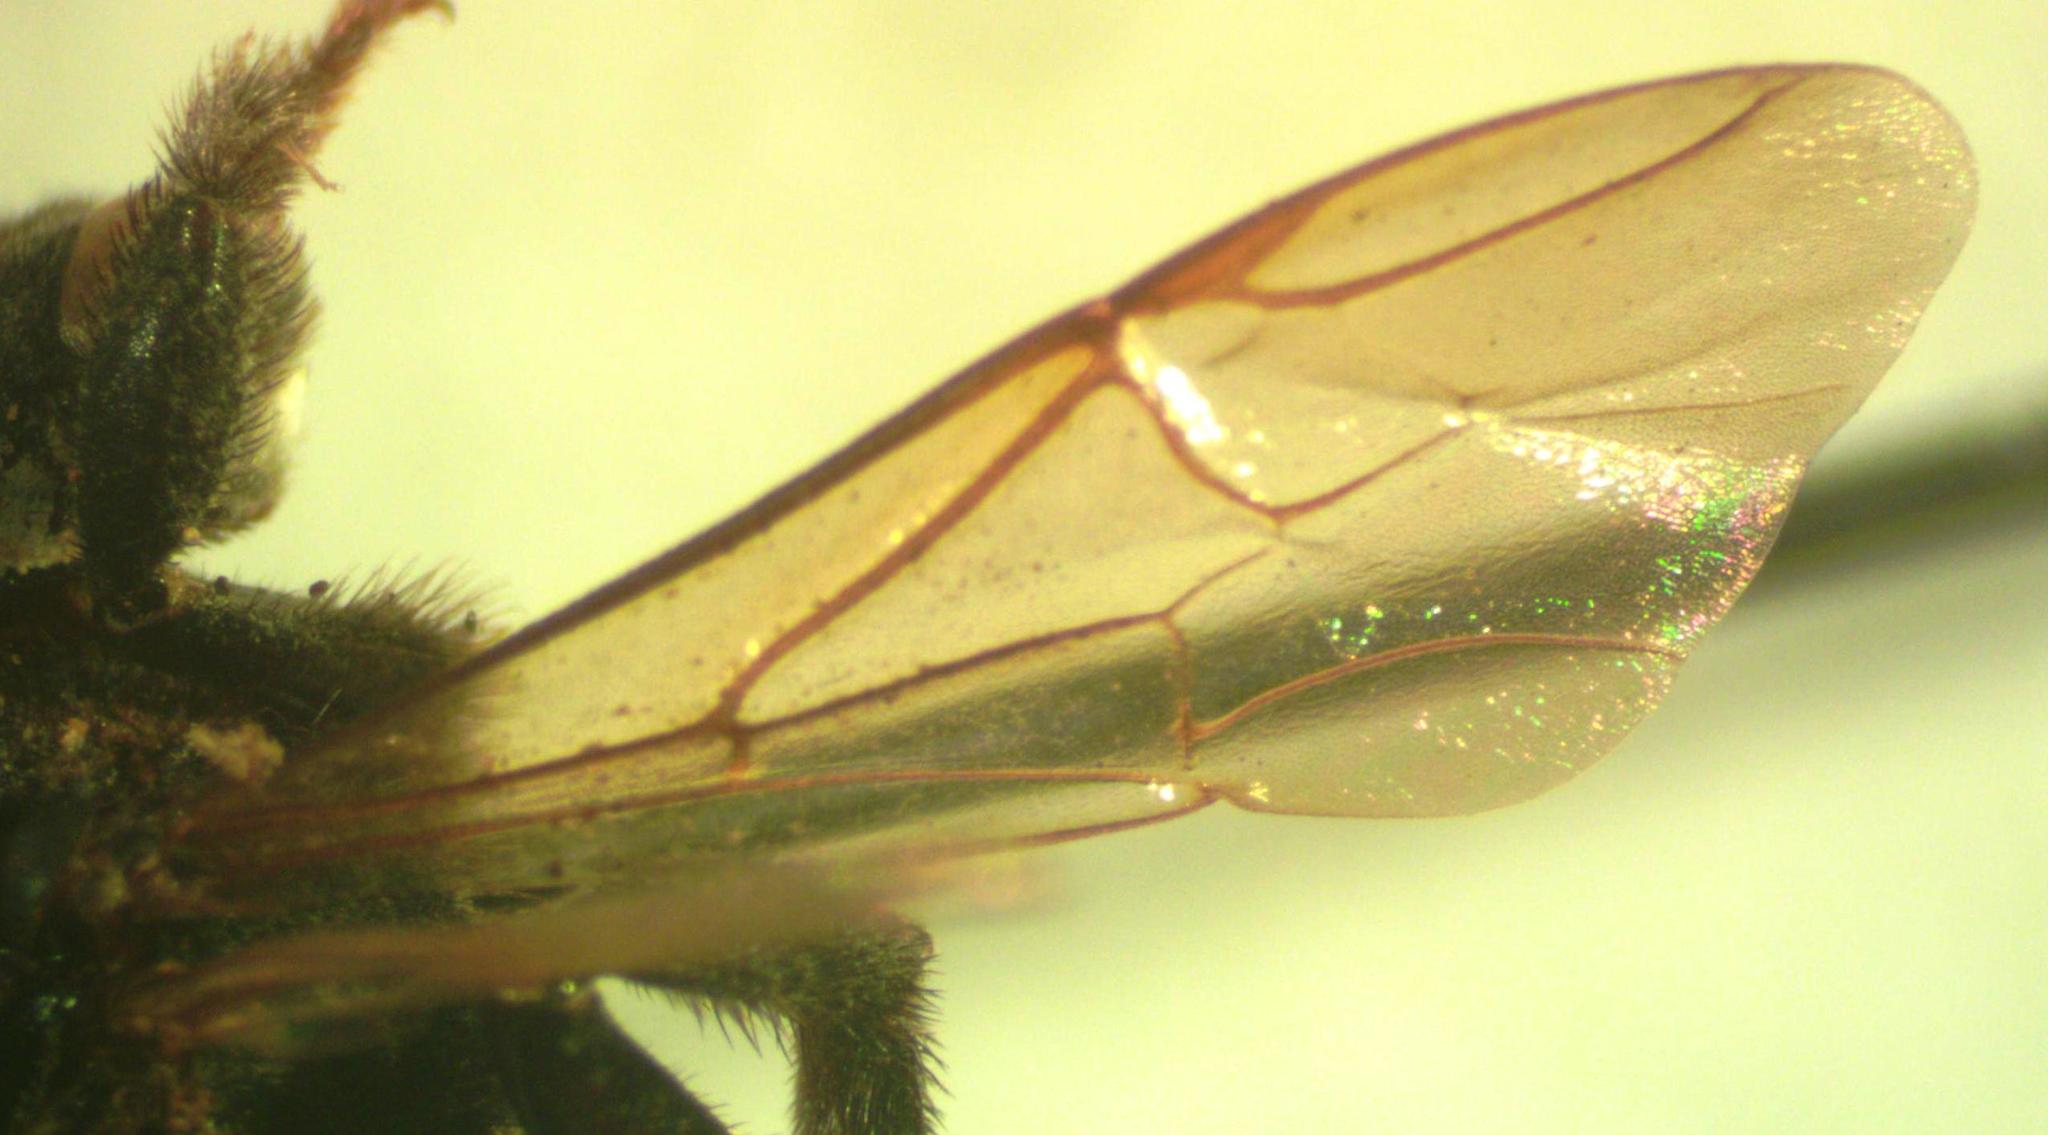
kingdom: Animalia
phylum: Arthropoda
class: Insecta
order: Hymenoptera
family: Apidae
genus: Trigona
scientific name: Trigona corvina
